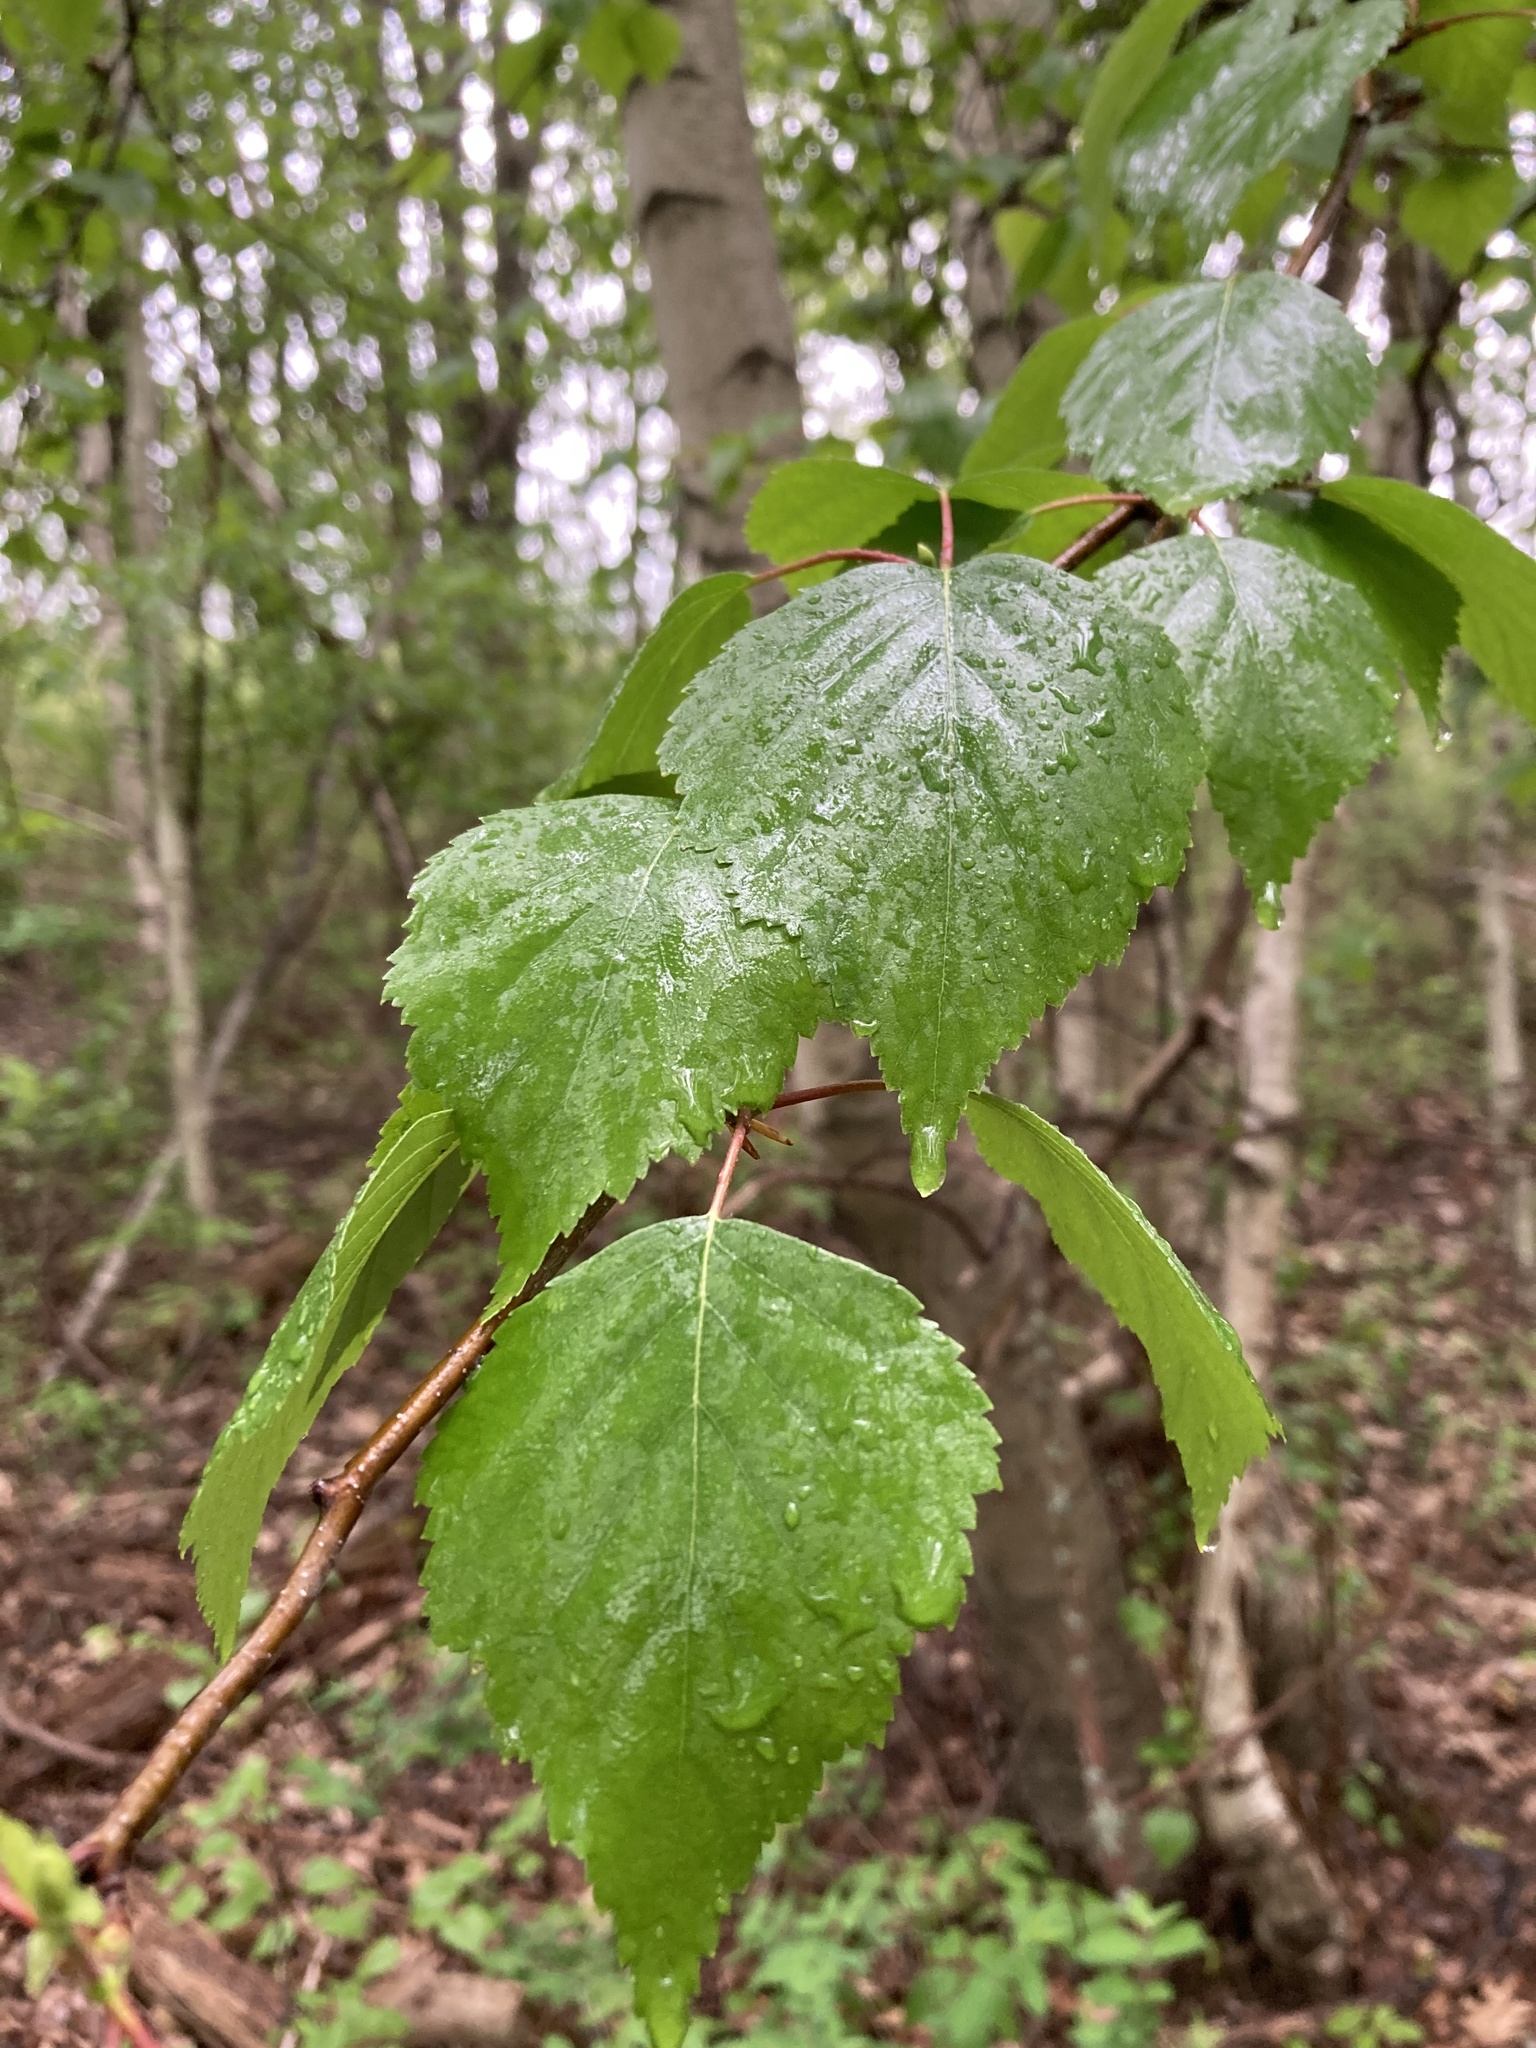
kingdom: Plantae
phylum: Tracheophyta
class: Magnoliopsida
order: Fagales
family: Betulaceae
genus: Betula
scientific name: Betula populifolia
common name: Fire birch
